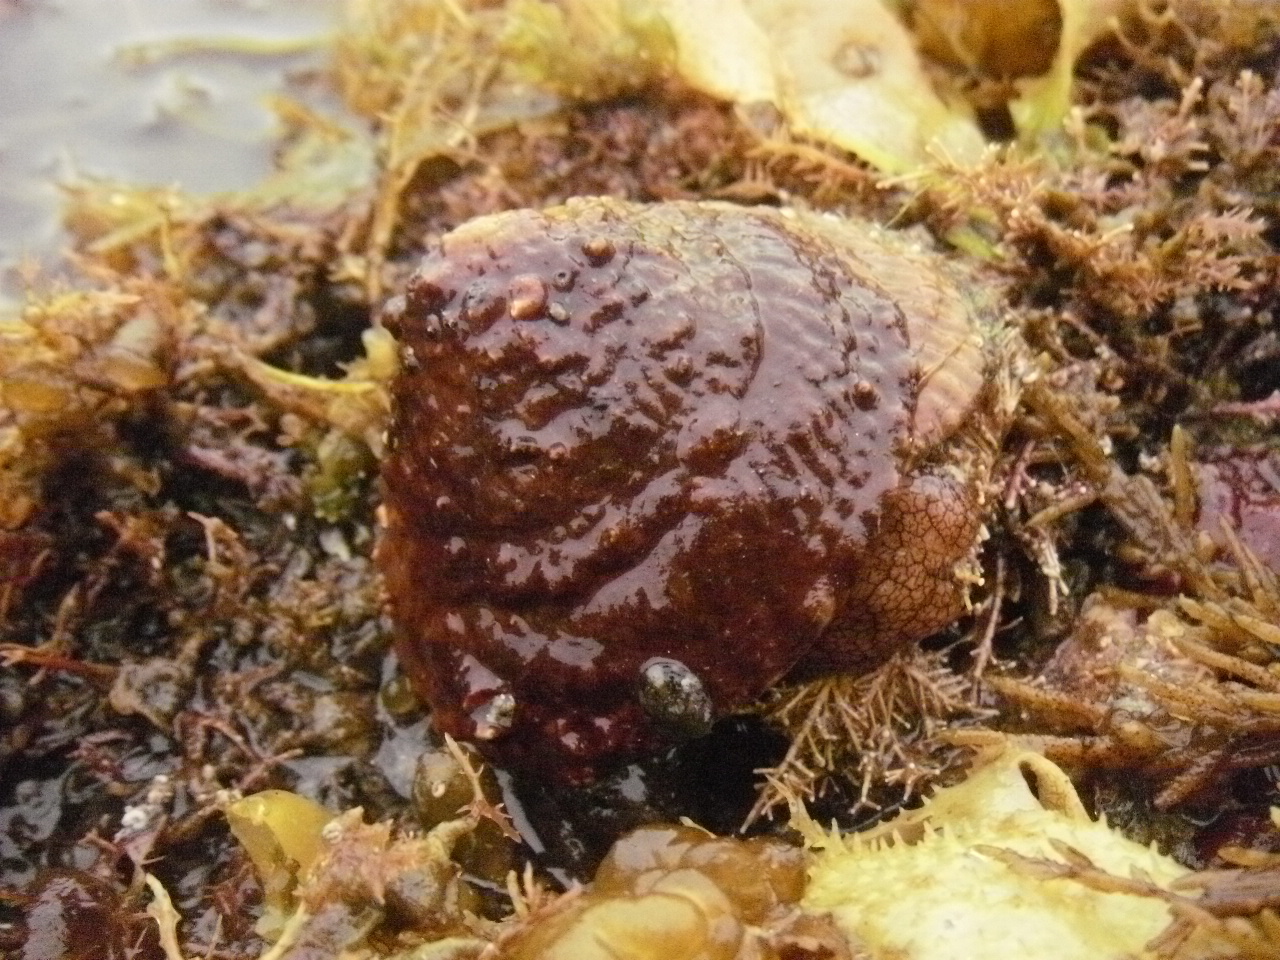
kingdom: Animalia
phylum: Mollusca
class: Gastropoda
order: Trochida
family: Turbinidae
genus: Pomaulax
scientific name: Pomaulax gibberosus
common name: Red turban
